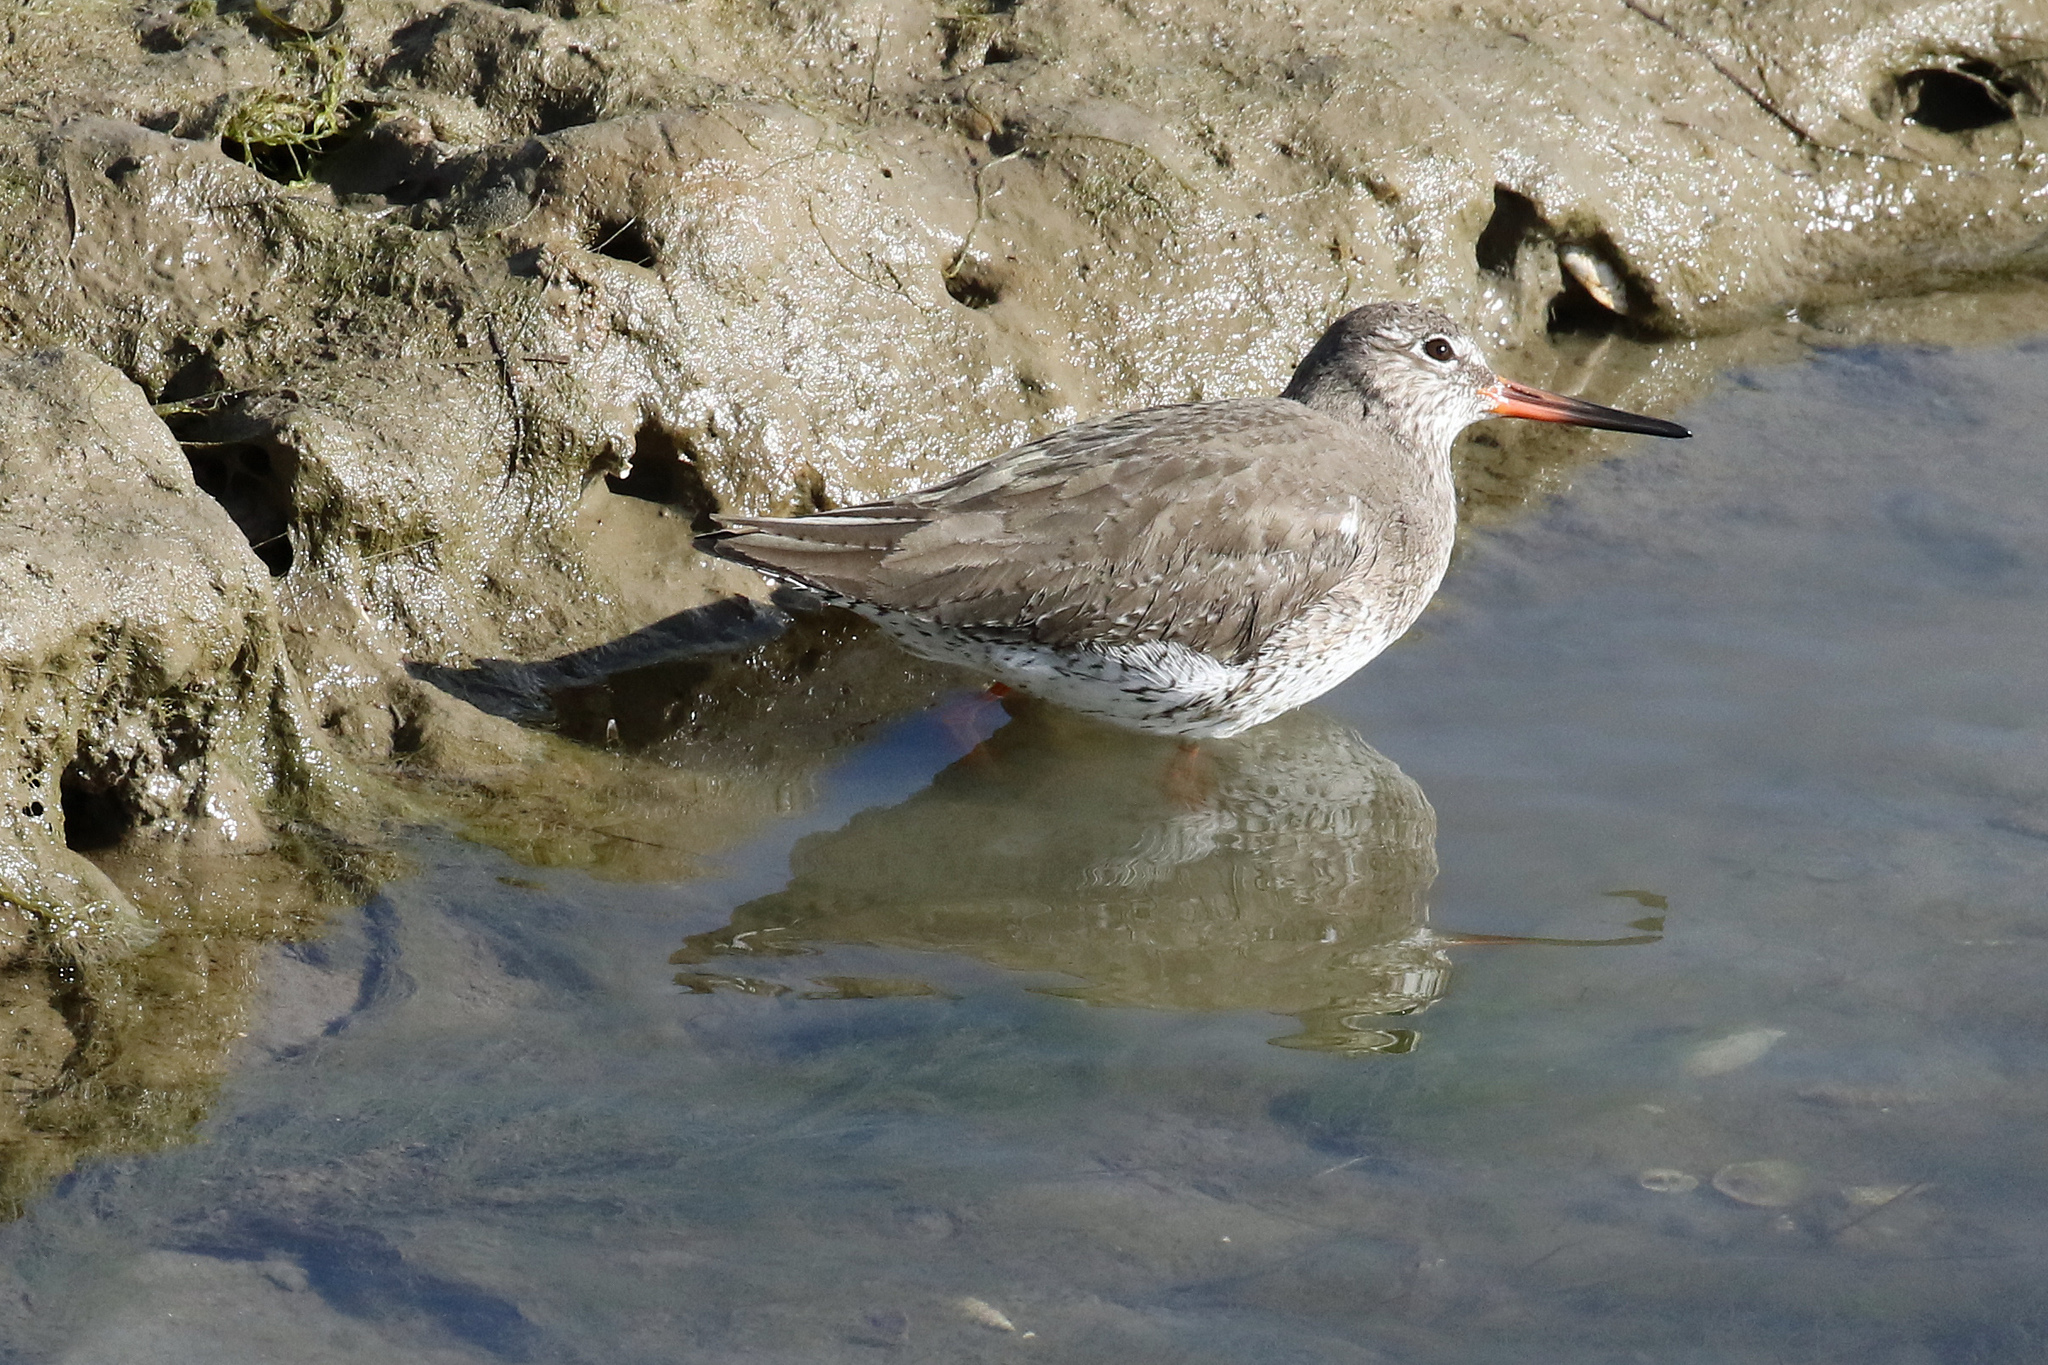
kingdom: Animalia
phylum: Chordata
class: Aves
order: Charadriiformes
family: Scolopacidae
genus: Tringa
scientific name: Tringa totanus
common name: Common redshank
